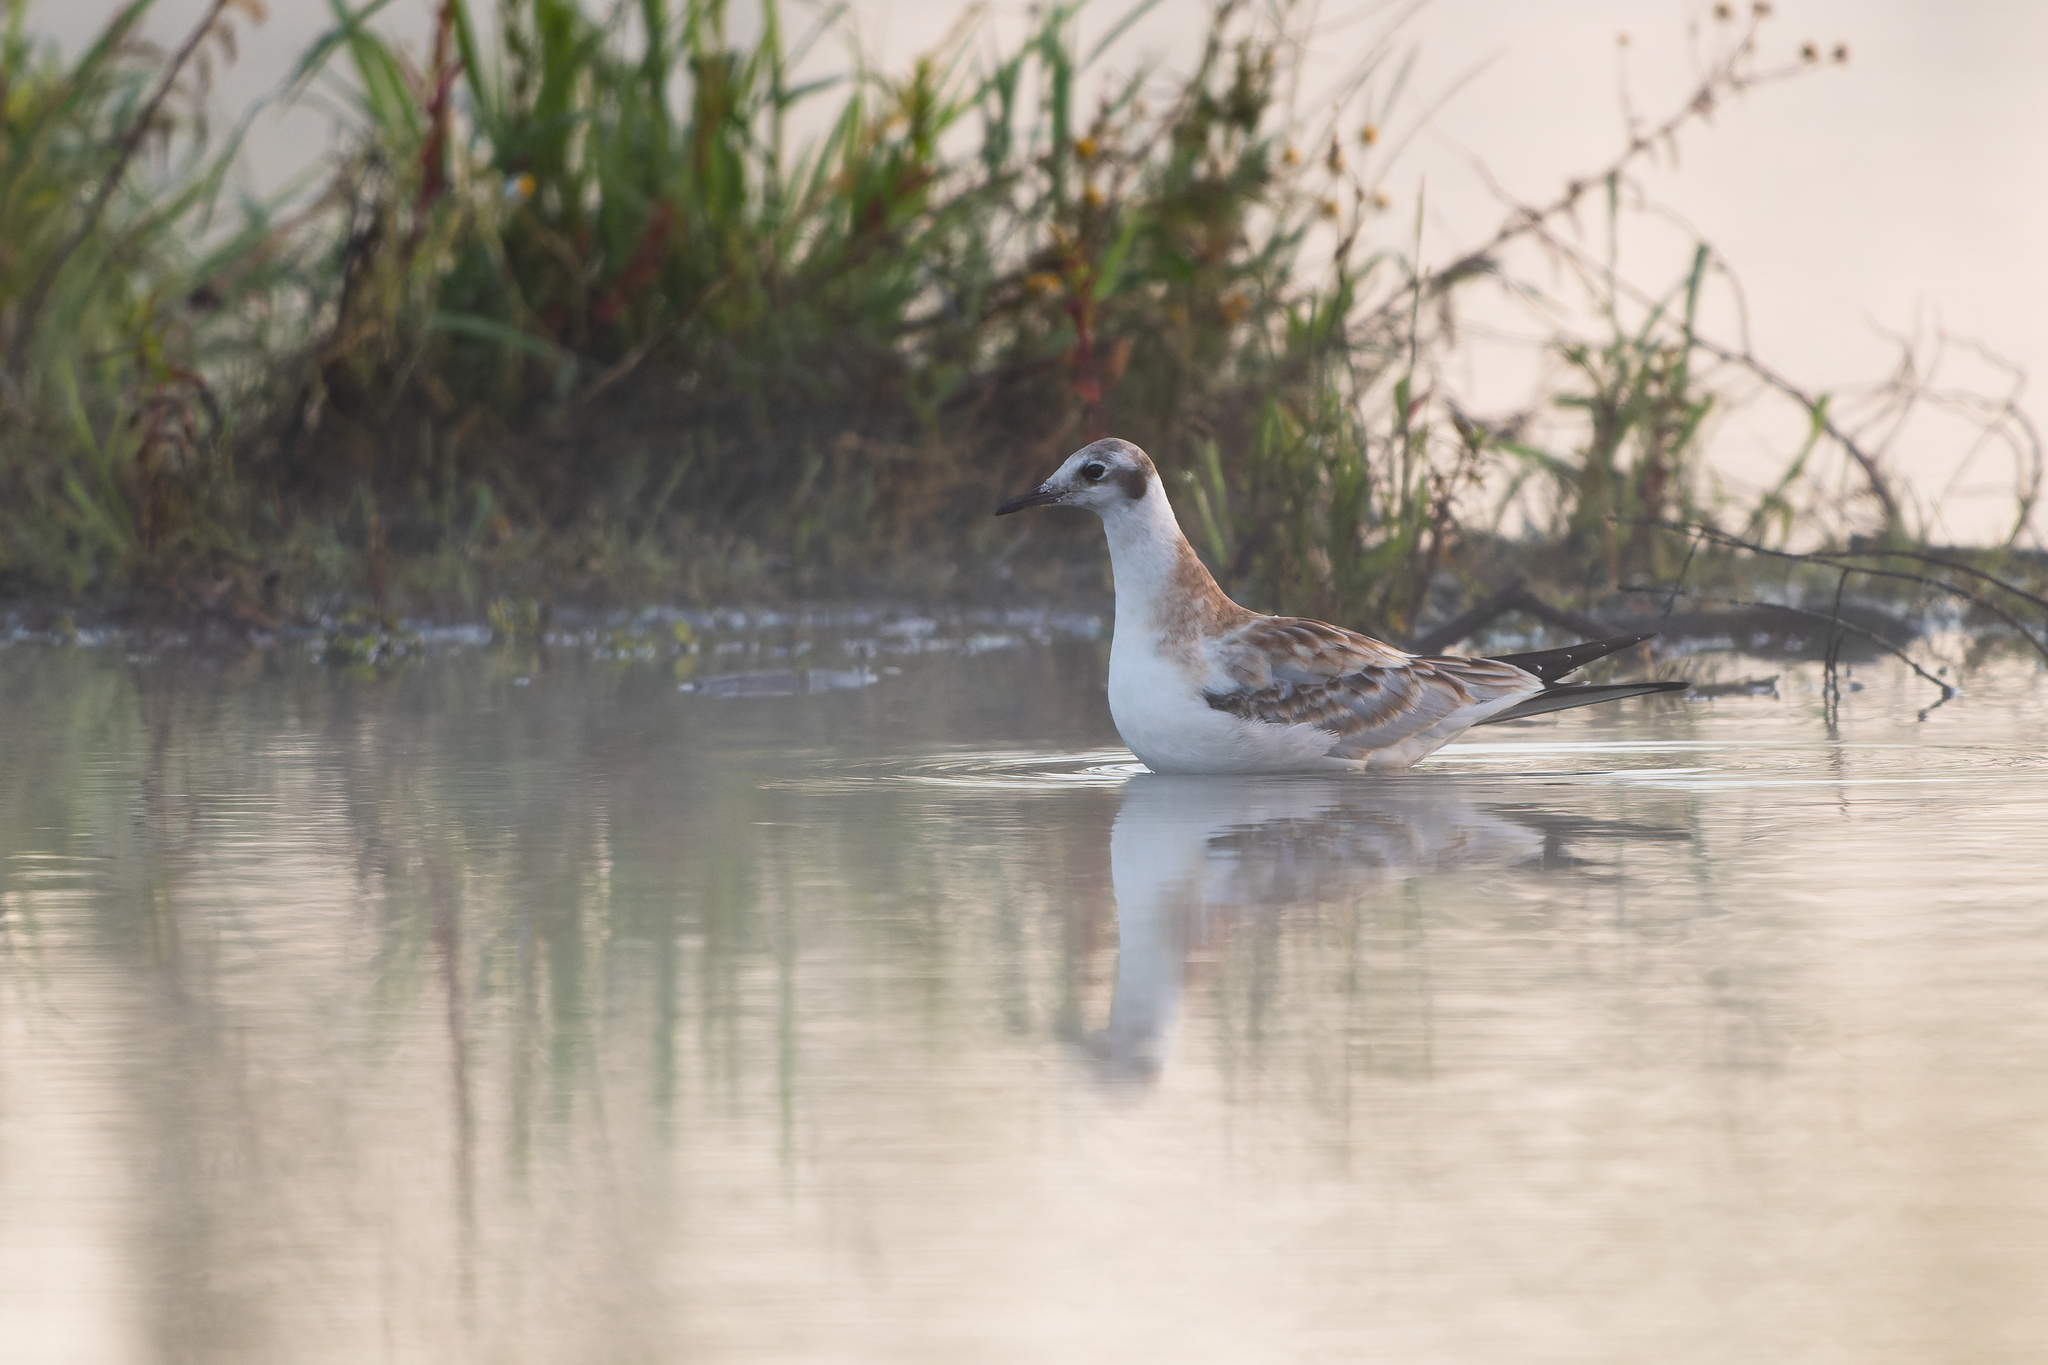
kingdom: Animalia
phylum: Chordata
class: Aves
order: Charadriiformes
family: Laridae
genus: Chroicocephalus
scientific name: Chroicocephalus ridibundus
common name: Black-headed gull
